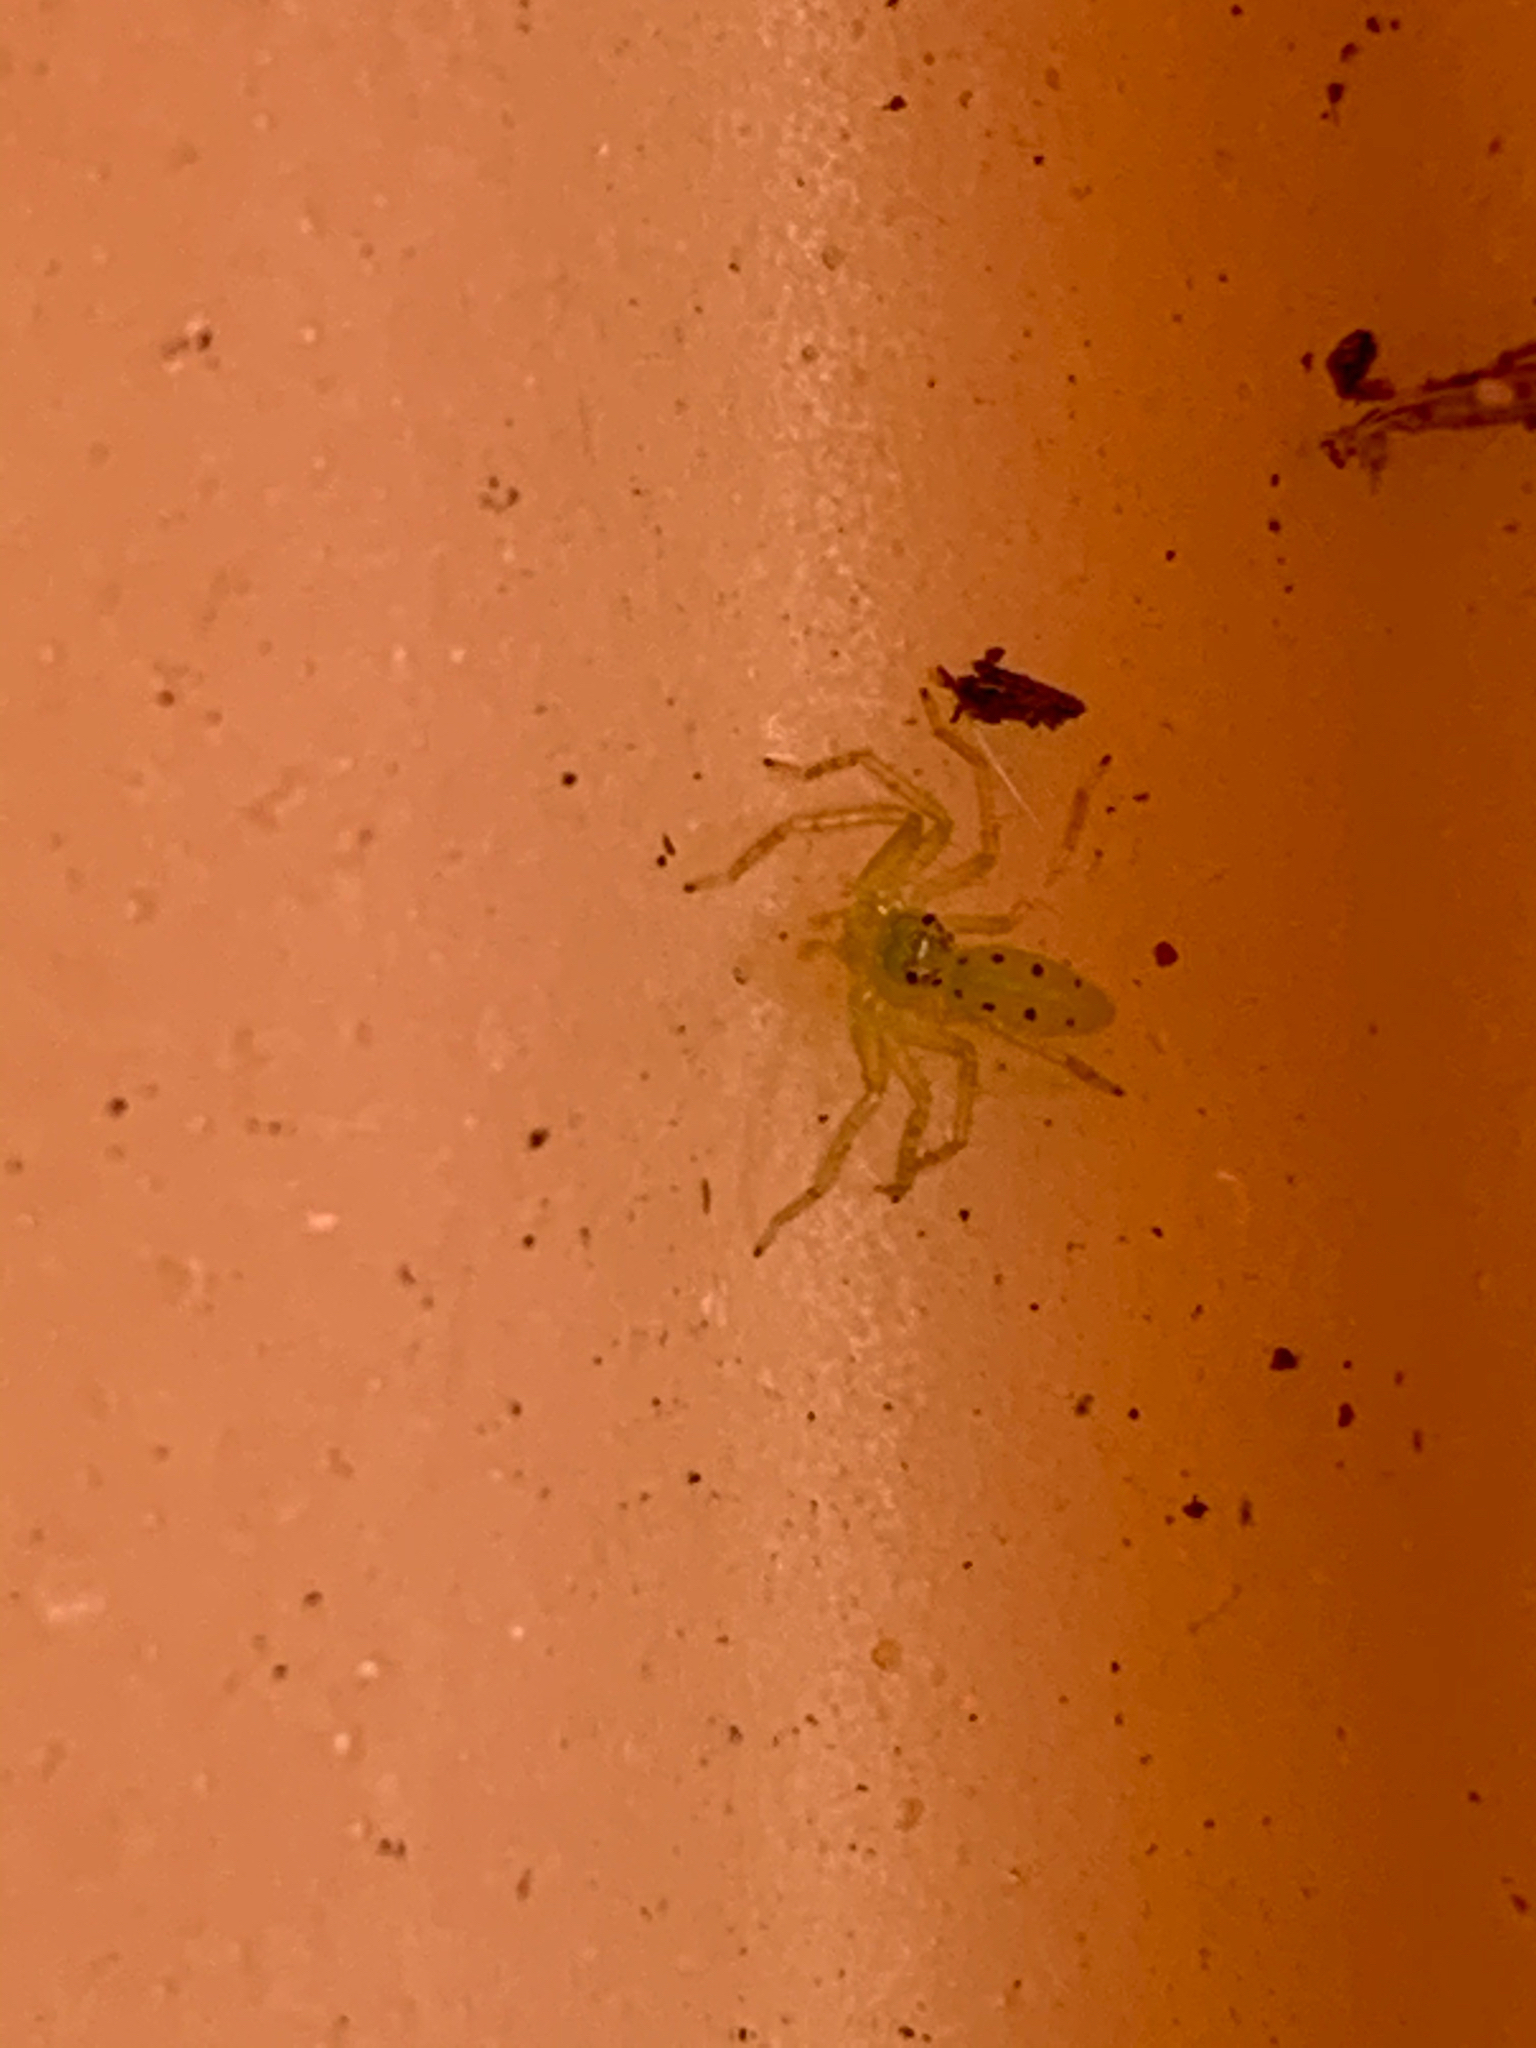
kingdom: Animalia
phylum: Arthropoda
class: Arachnida
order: Araneae
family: Salticidae
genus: Lyssomanes
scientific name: Lyssomanes viridis
